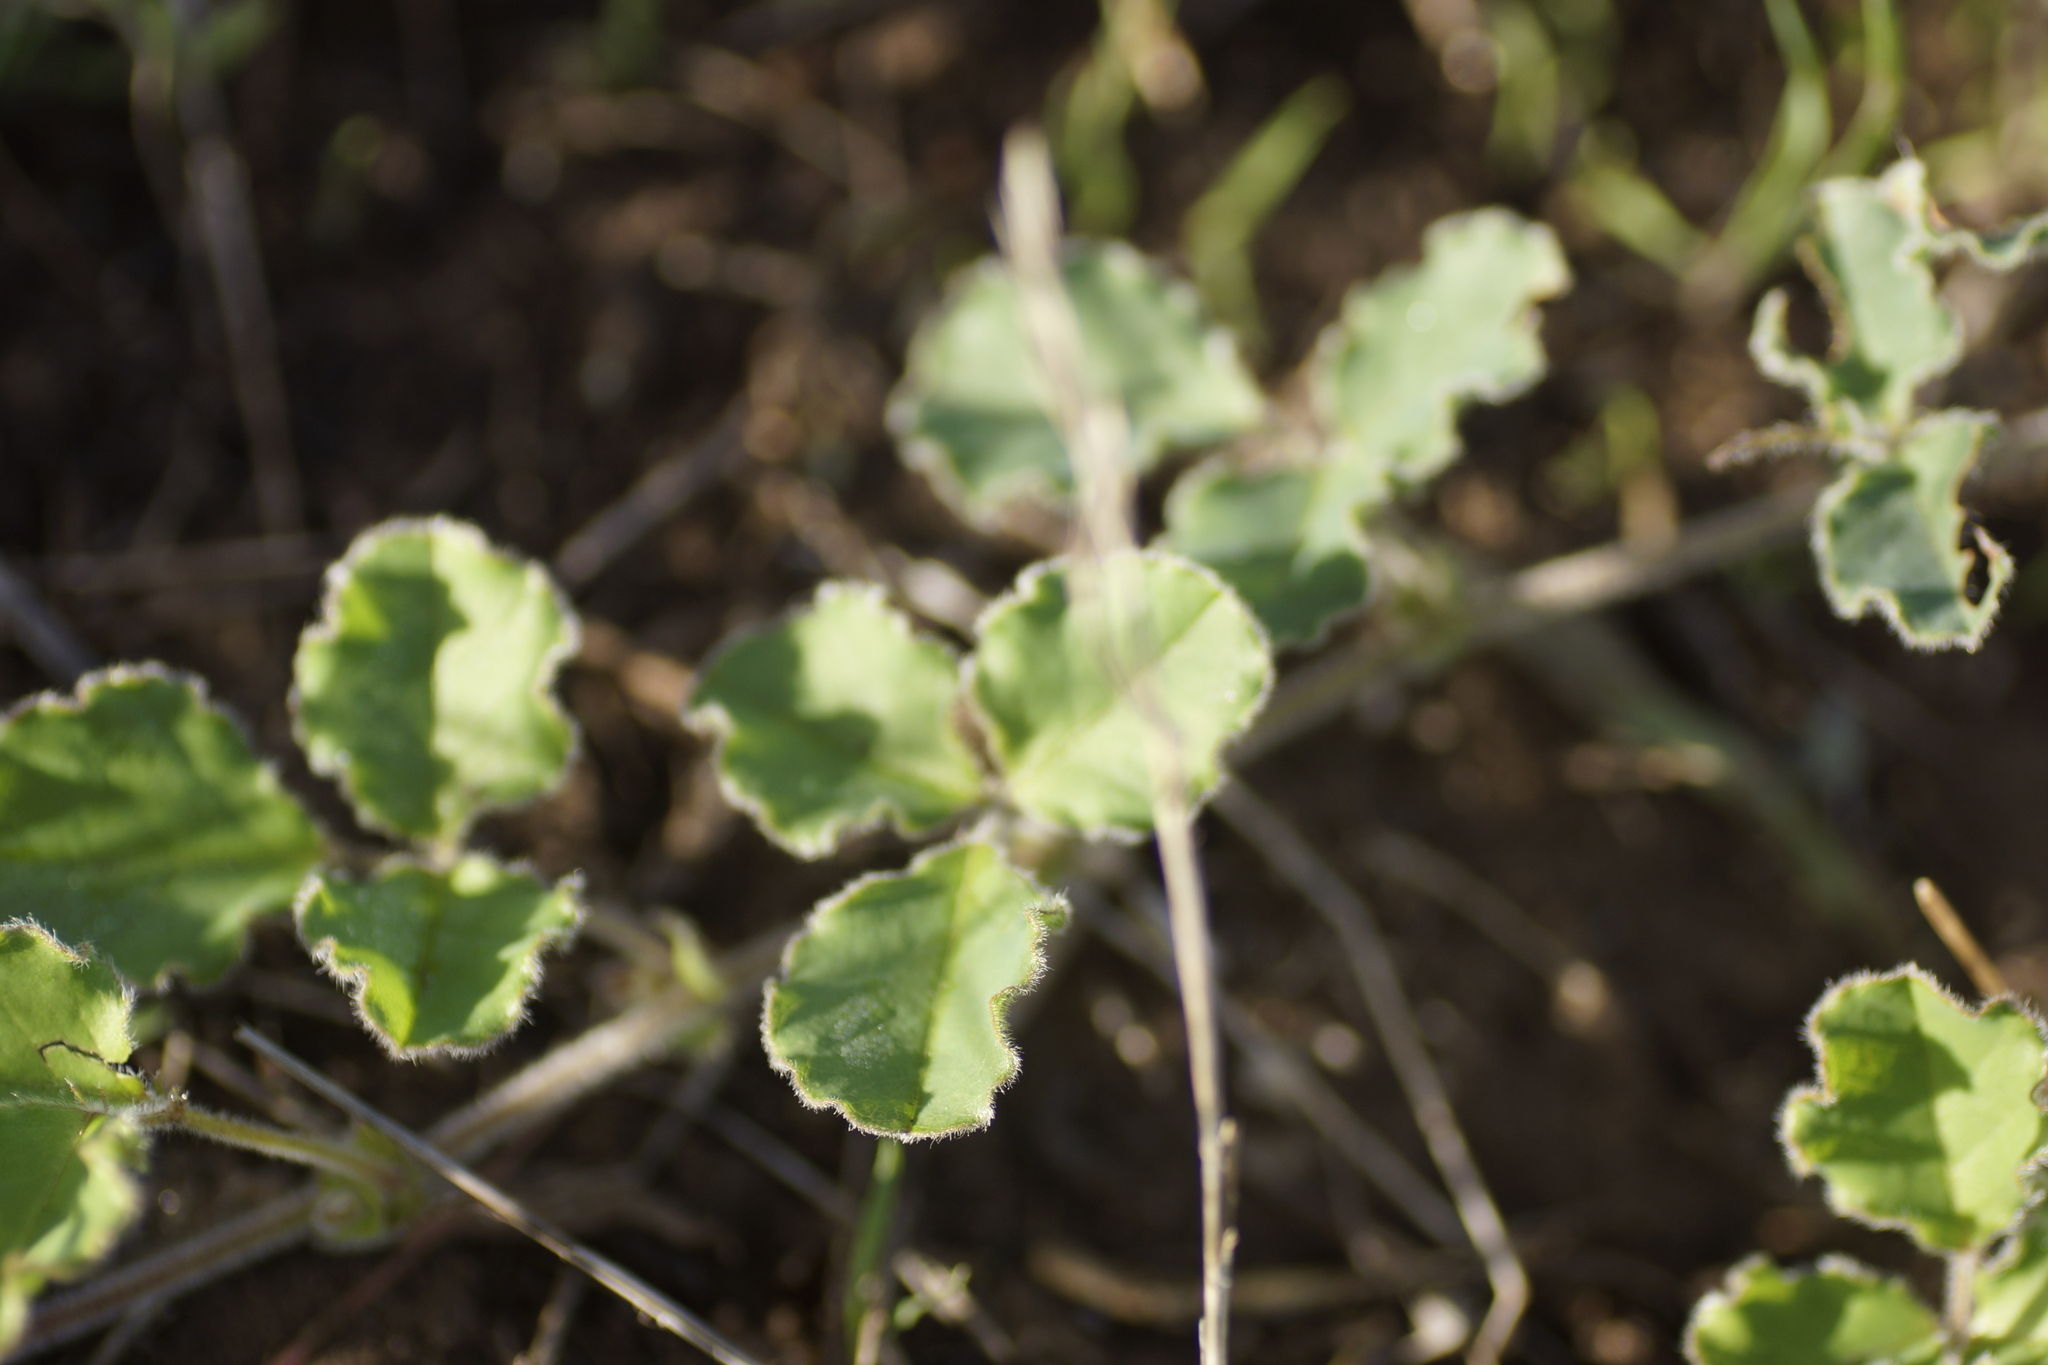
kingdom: Plantae
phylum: Tracheophyta
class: Magnoliopsida
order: Fabales
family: Fabaceae
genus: Kennedia
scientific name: Kennedia prostrata
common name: Running-postman
